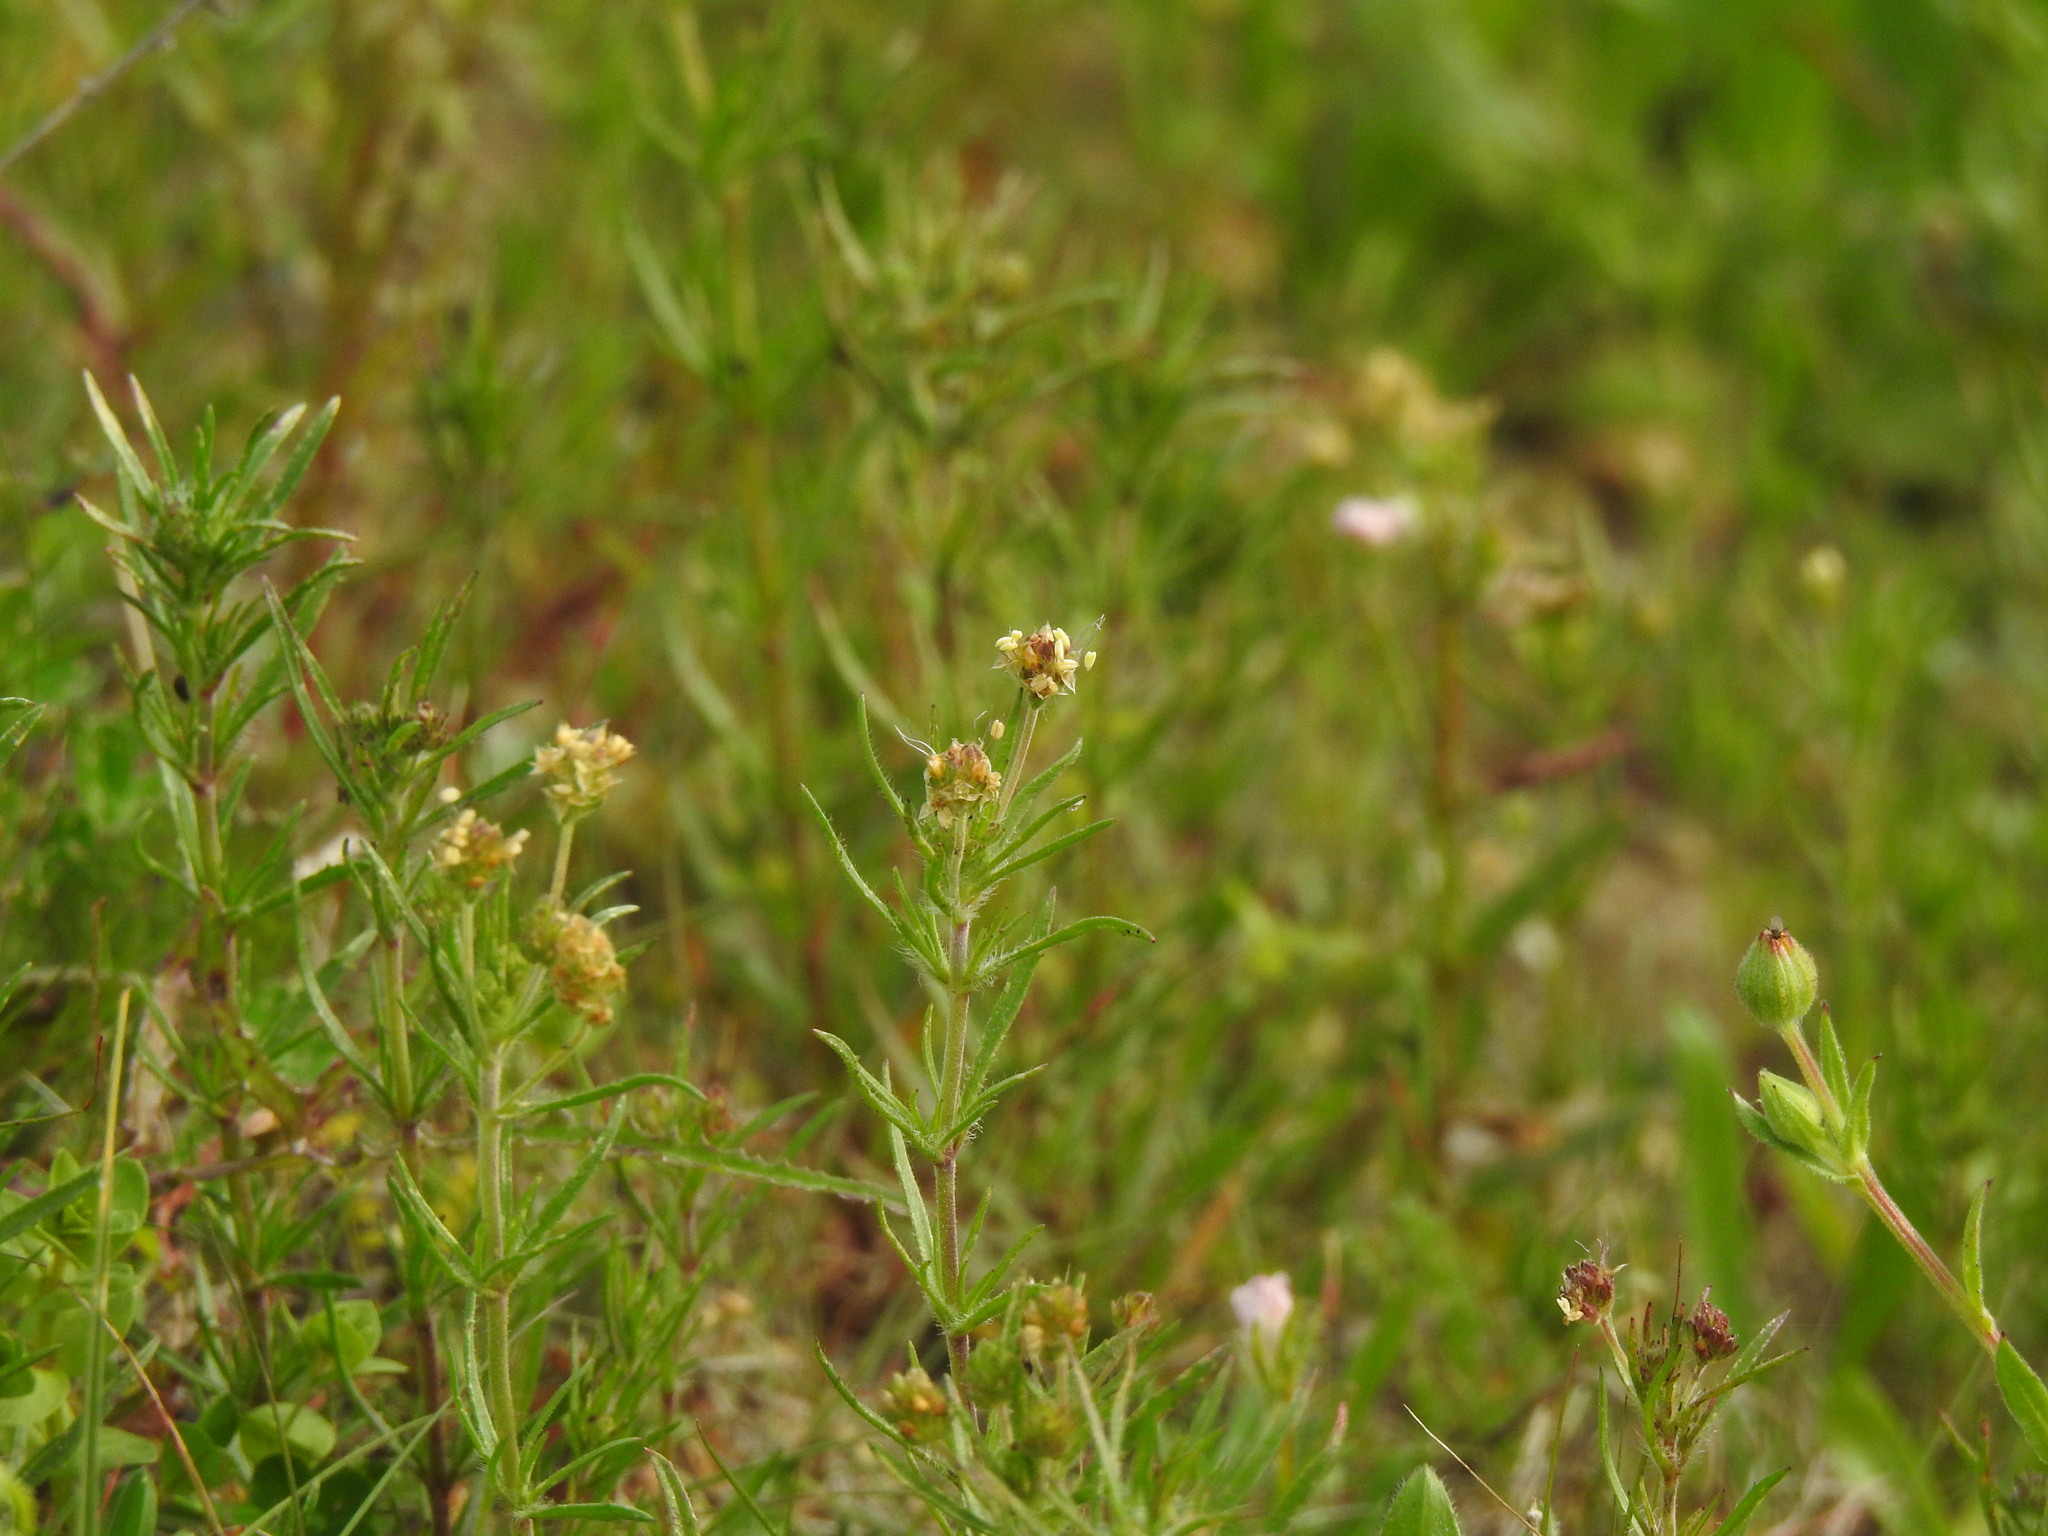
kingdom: Plantae
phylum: Tracheophyta
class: Magnoliopsida
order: Lamiales
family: Plantaginaceae
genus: Plantago
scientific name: Plantago afra
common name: Glandular plantain
